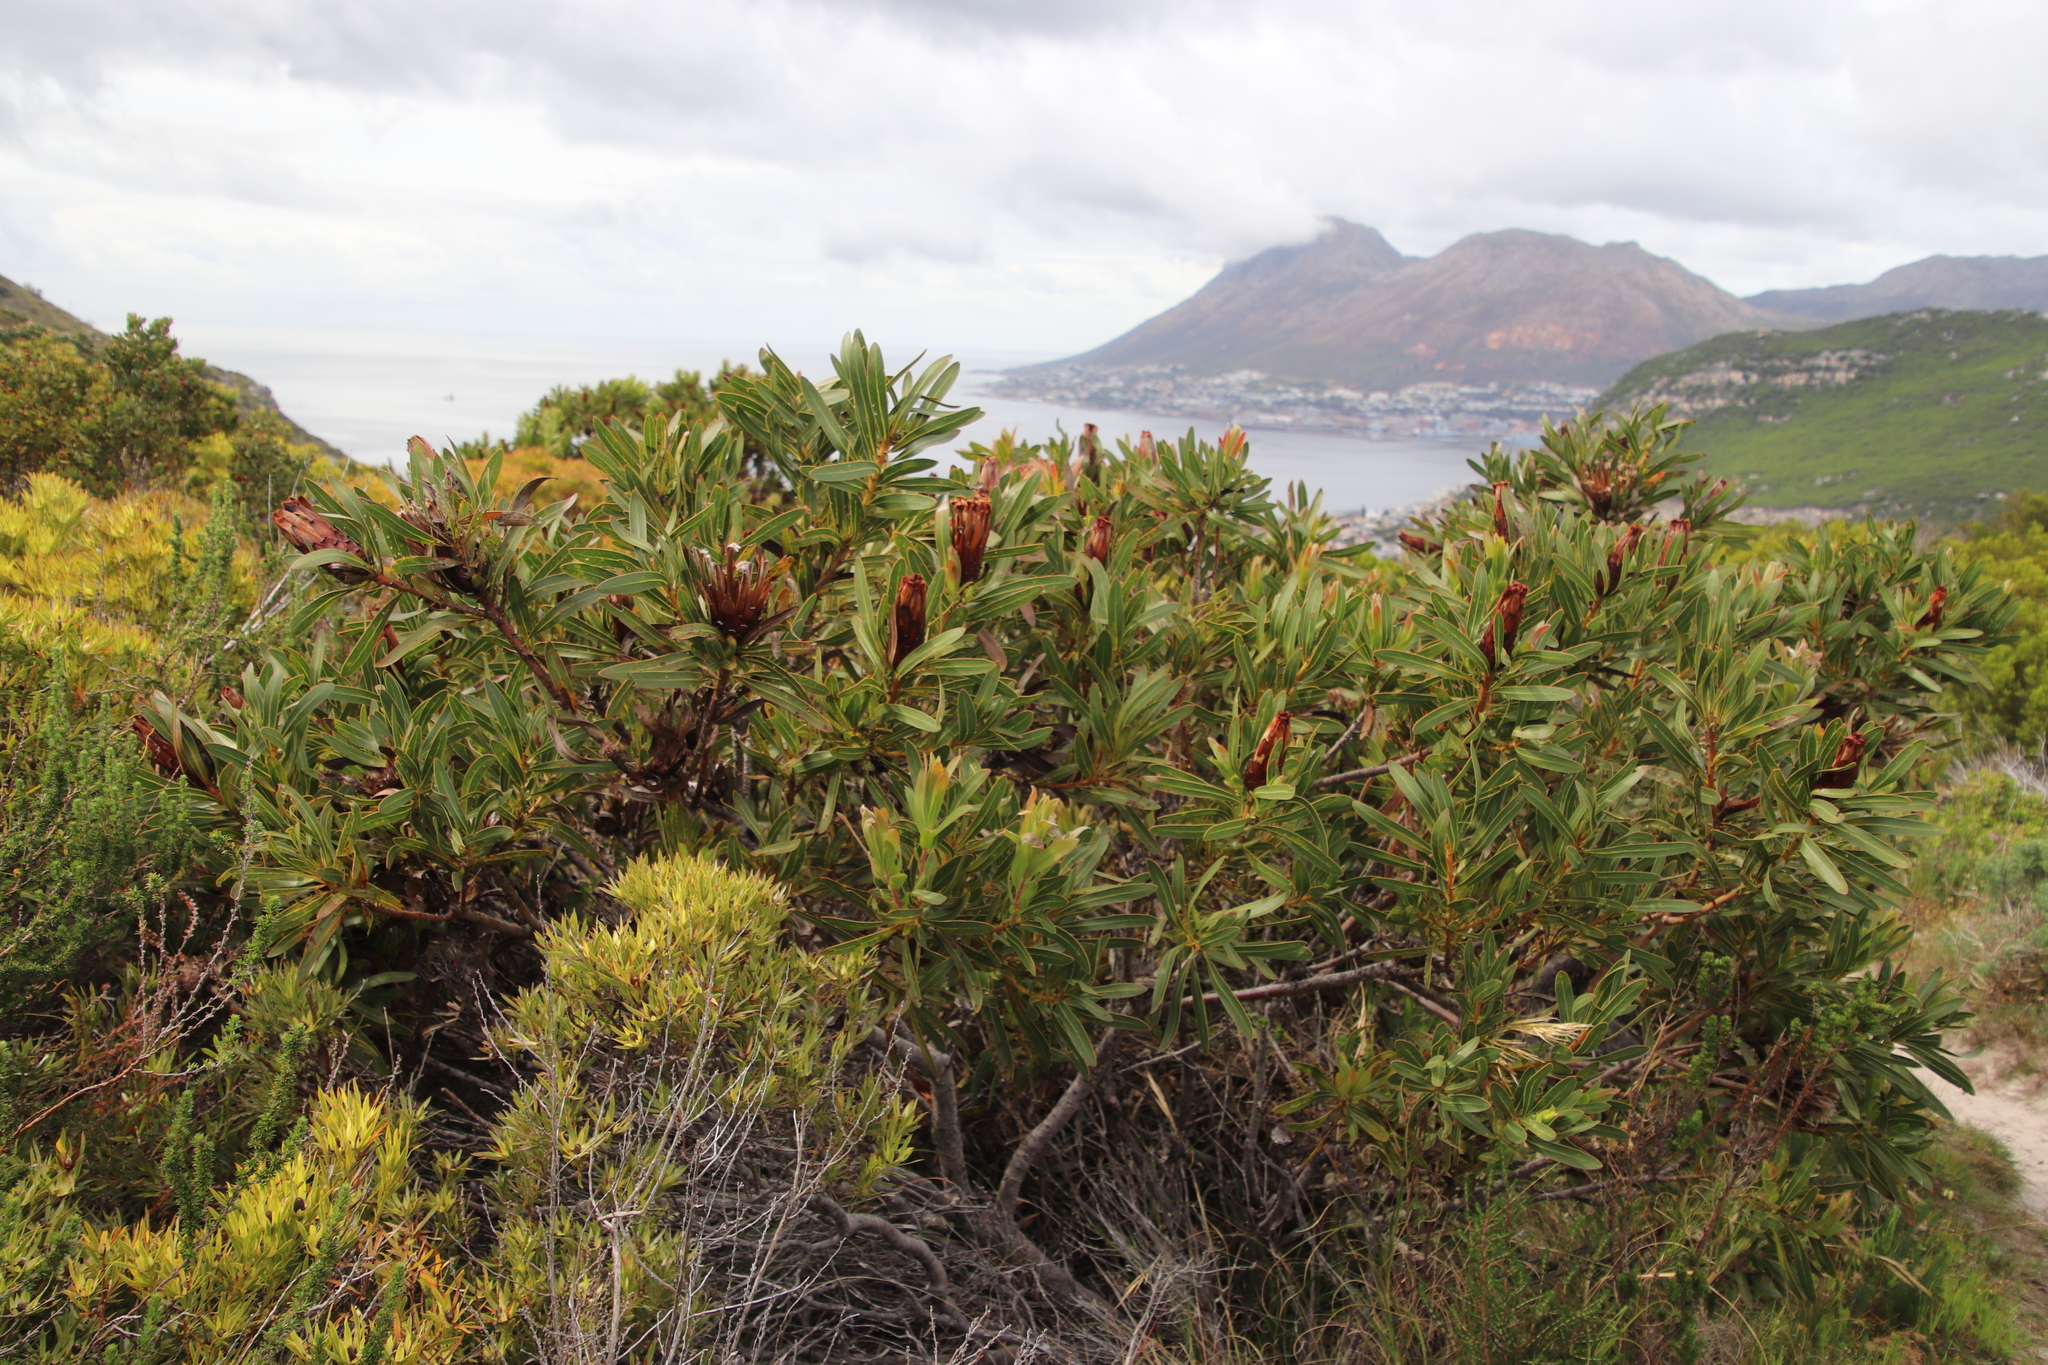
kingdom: Plantae
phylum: Tracheophyta
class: Magnoliopsida
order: Proteales
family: Proteaceae
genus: Protea
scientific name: Protea lepidocarpodendron
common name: Black-bearded protea
